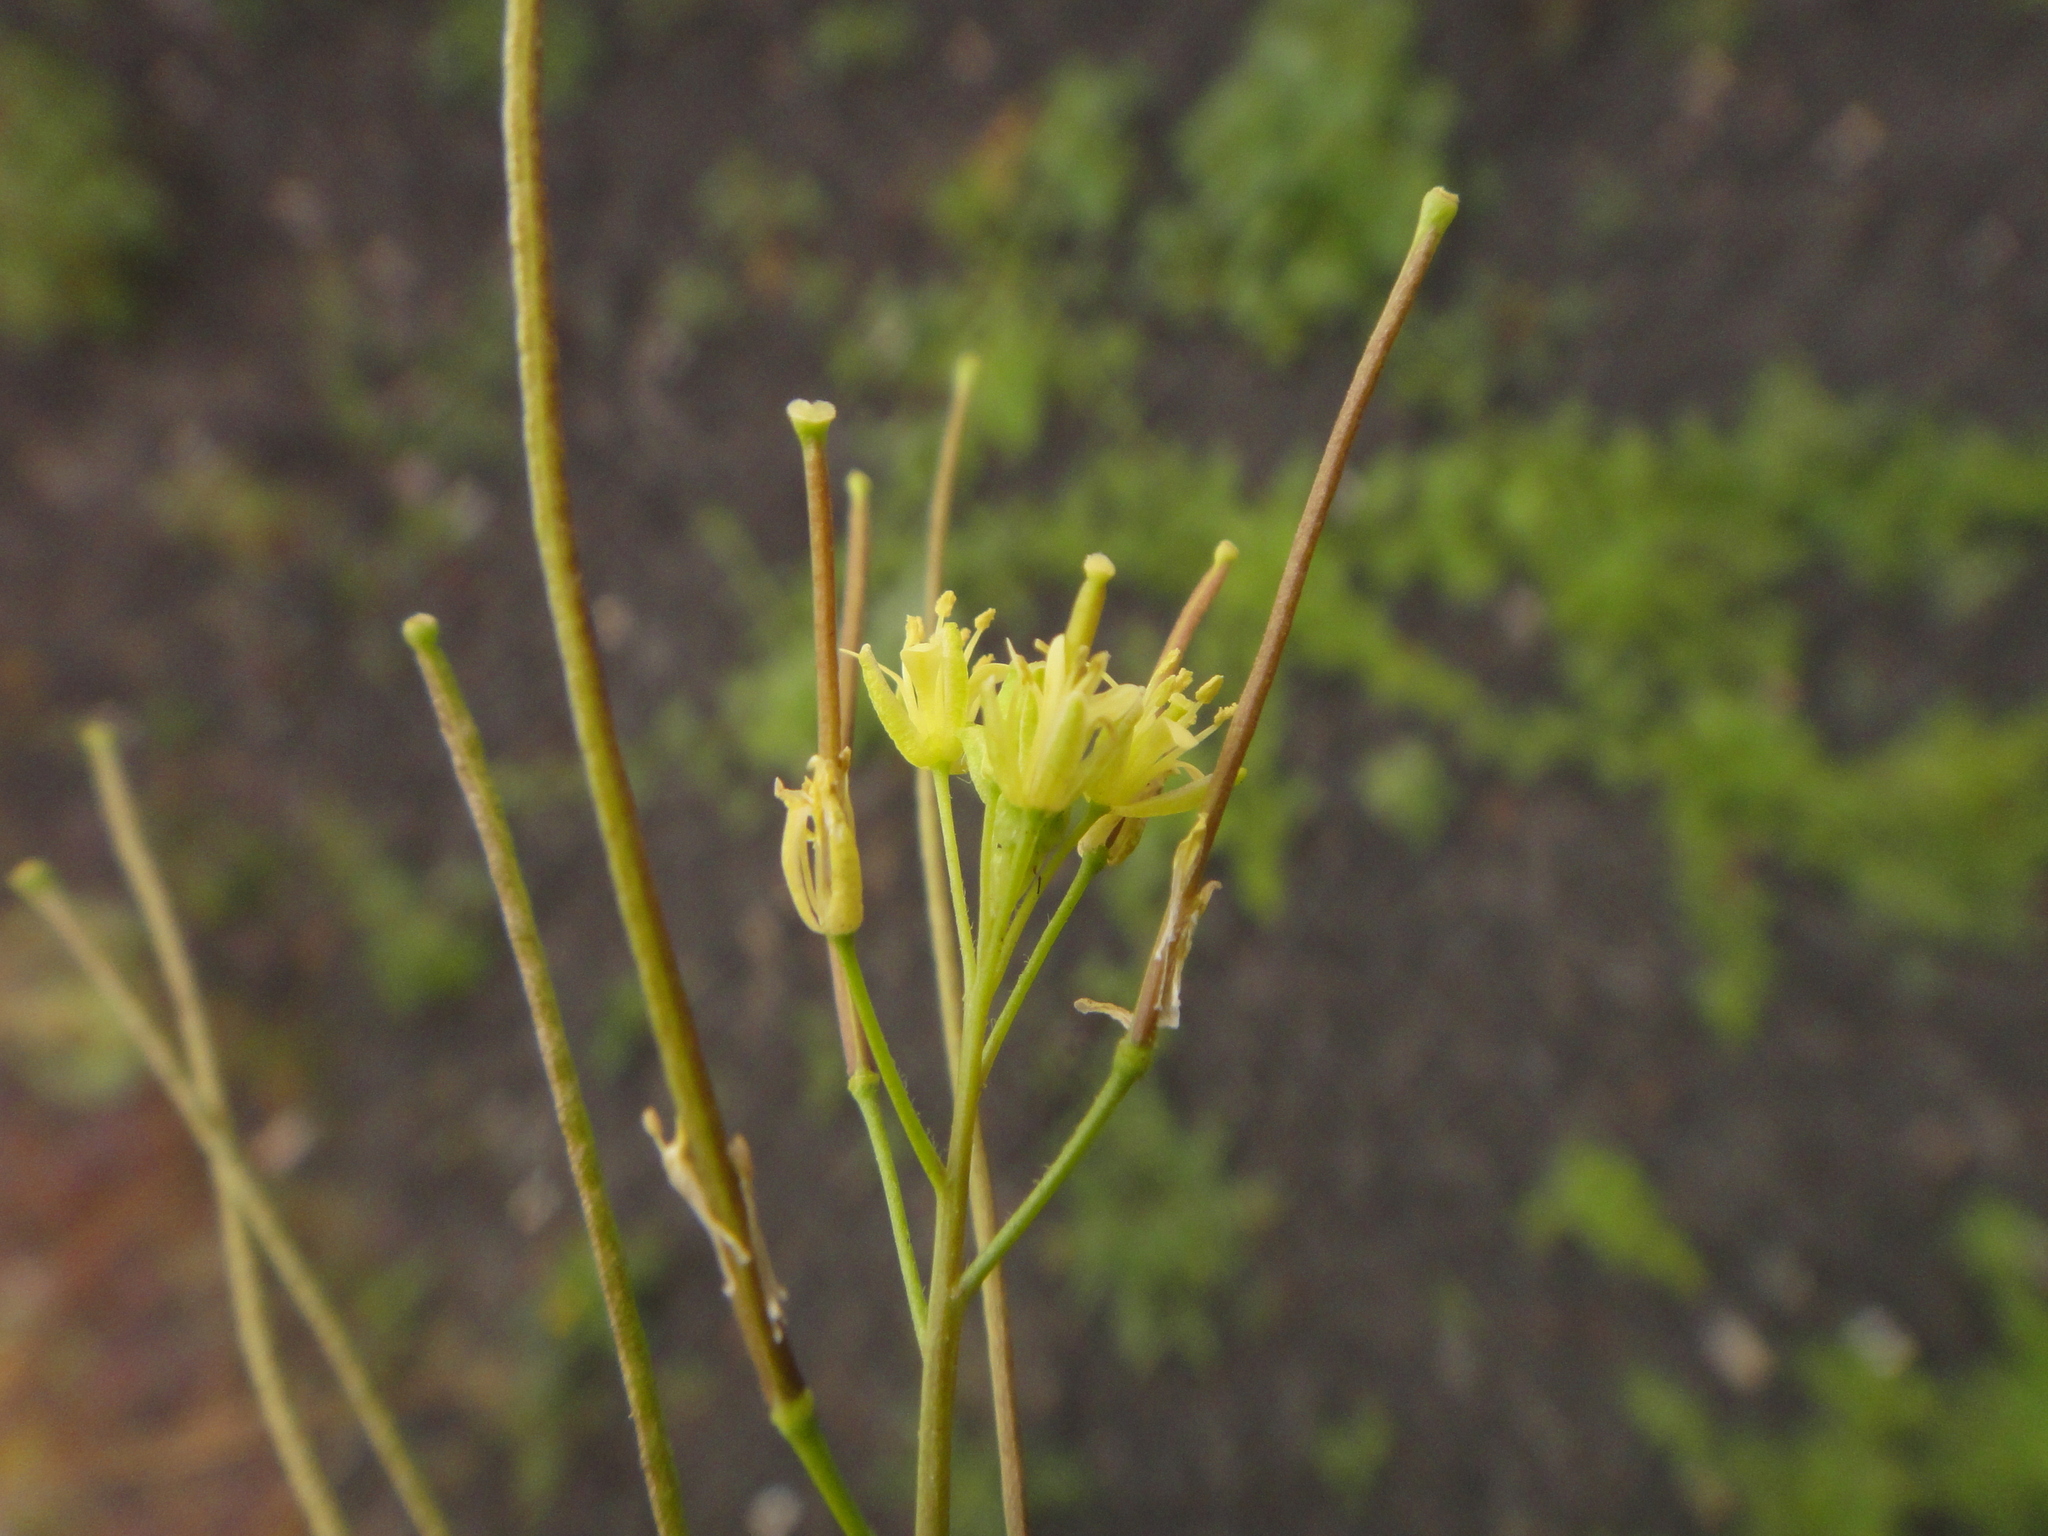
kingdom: Plantae
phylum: Tracheophyta
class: Magnoliopsida
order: Brassicales
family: Brassicaceae
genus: Sisymbrium
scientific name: Sisymbrium irio
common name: London rocket
